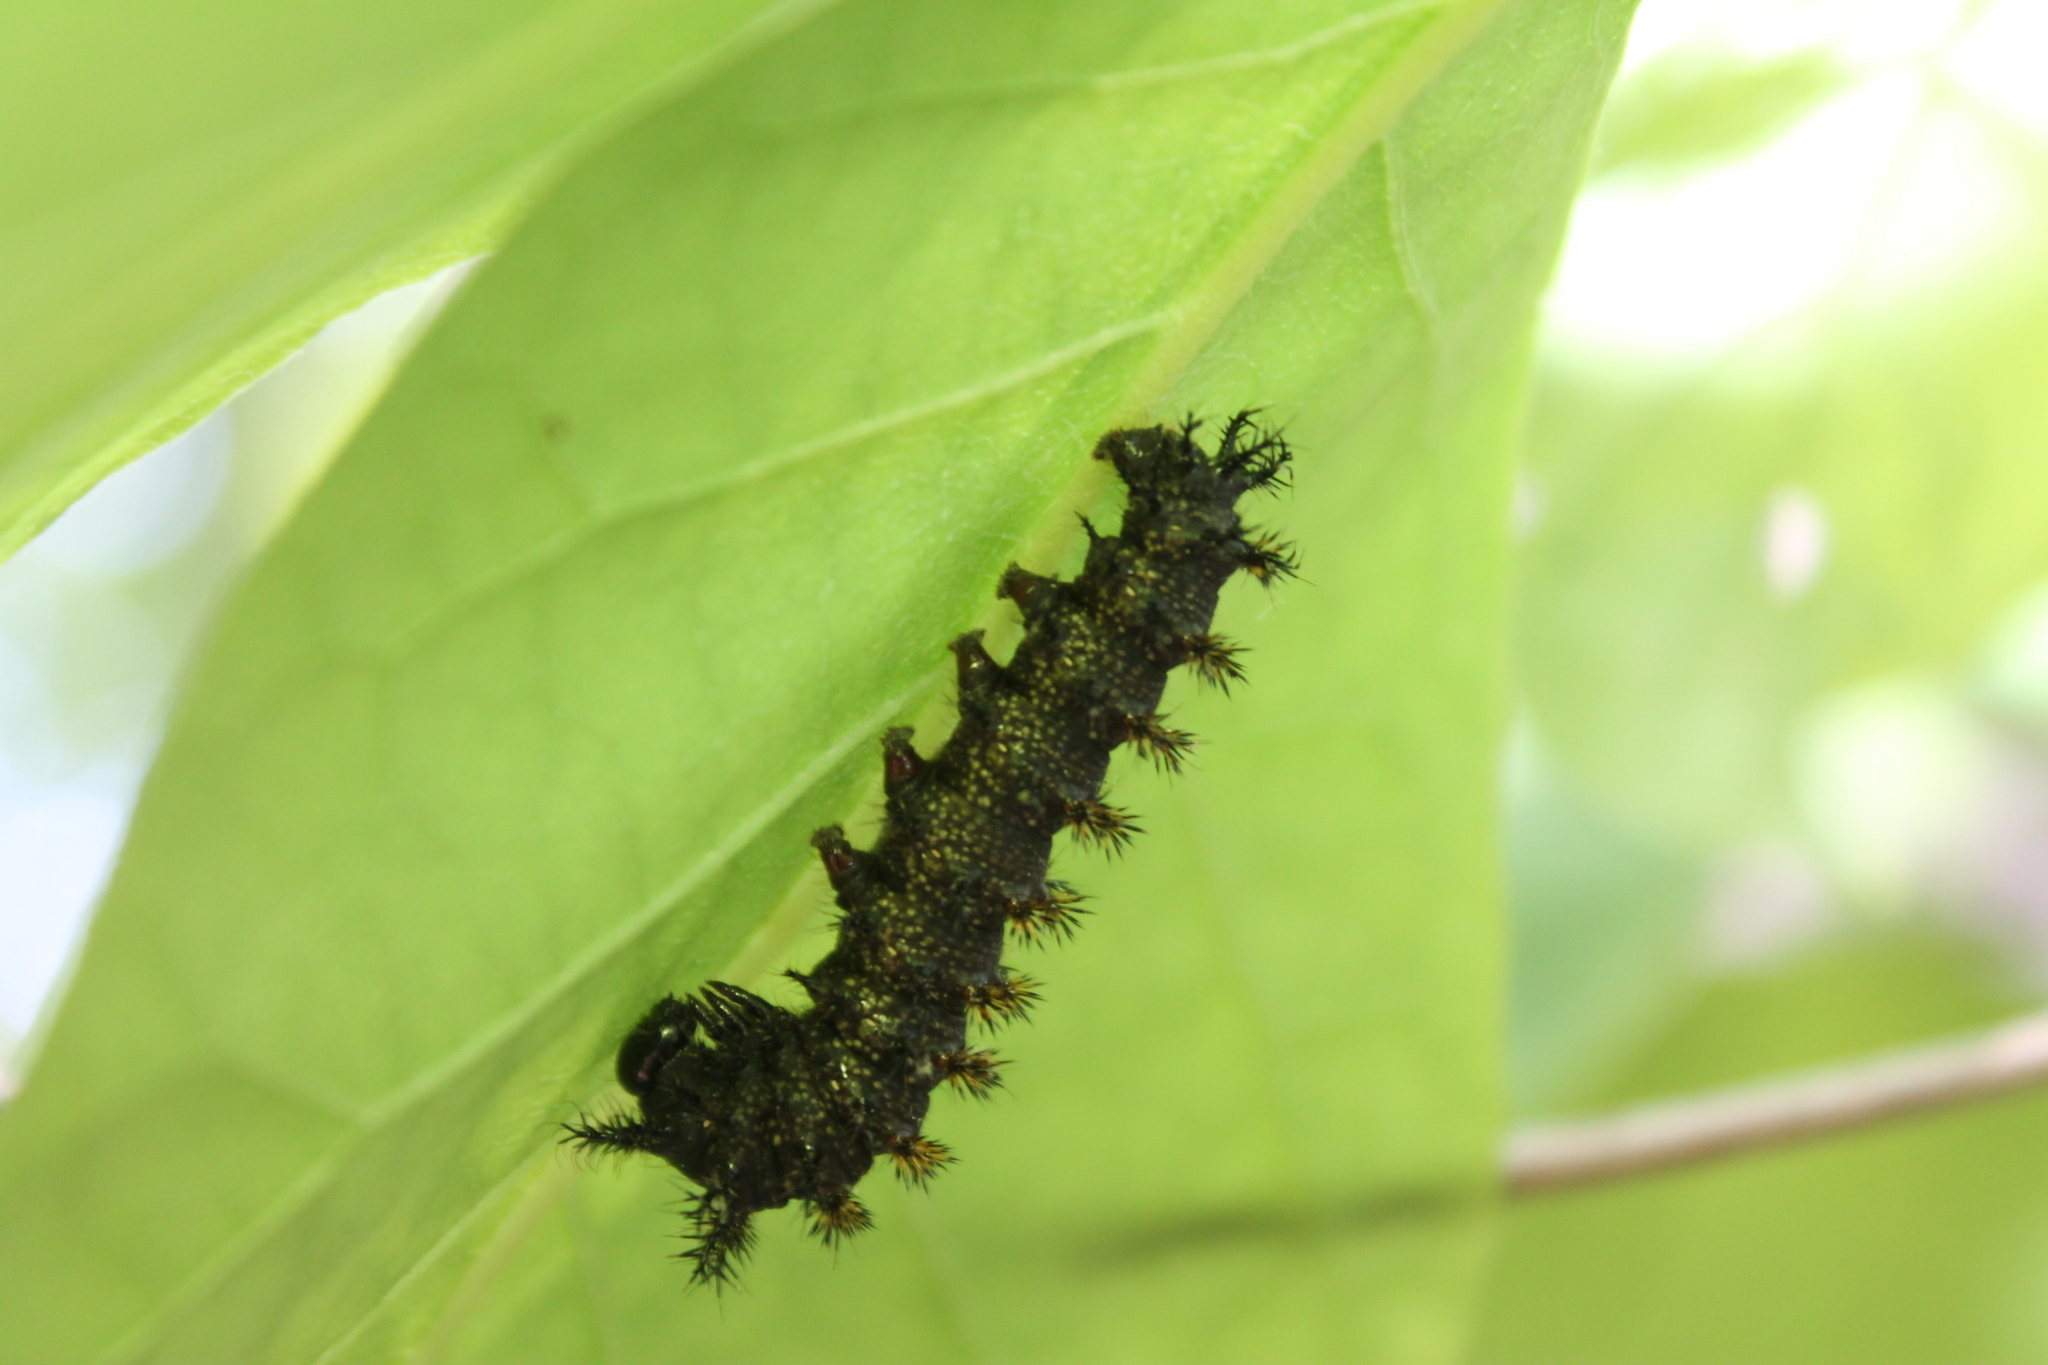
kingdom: Animalia
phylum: Arthropoda
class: Insecta
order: Lepidoptera
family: Saturniidae
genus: Hemileuca
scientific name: Hemileuca maia
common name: Eastern buckmoth
